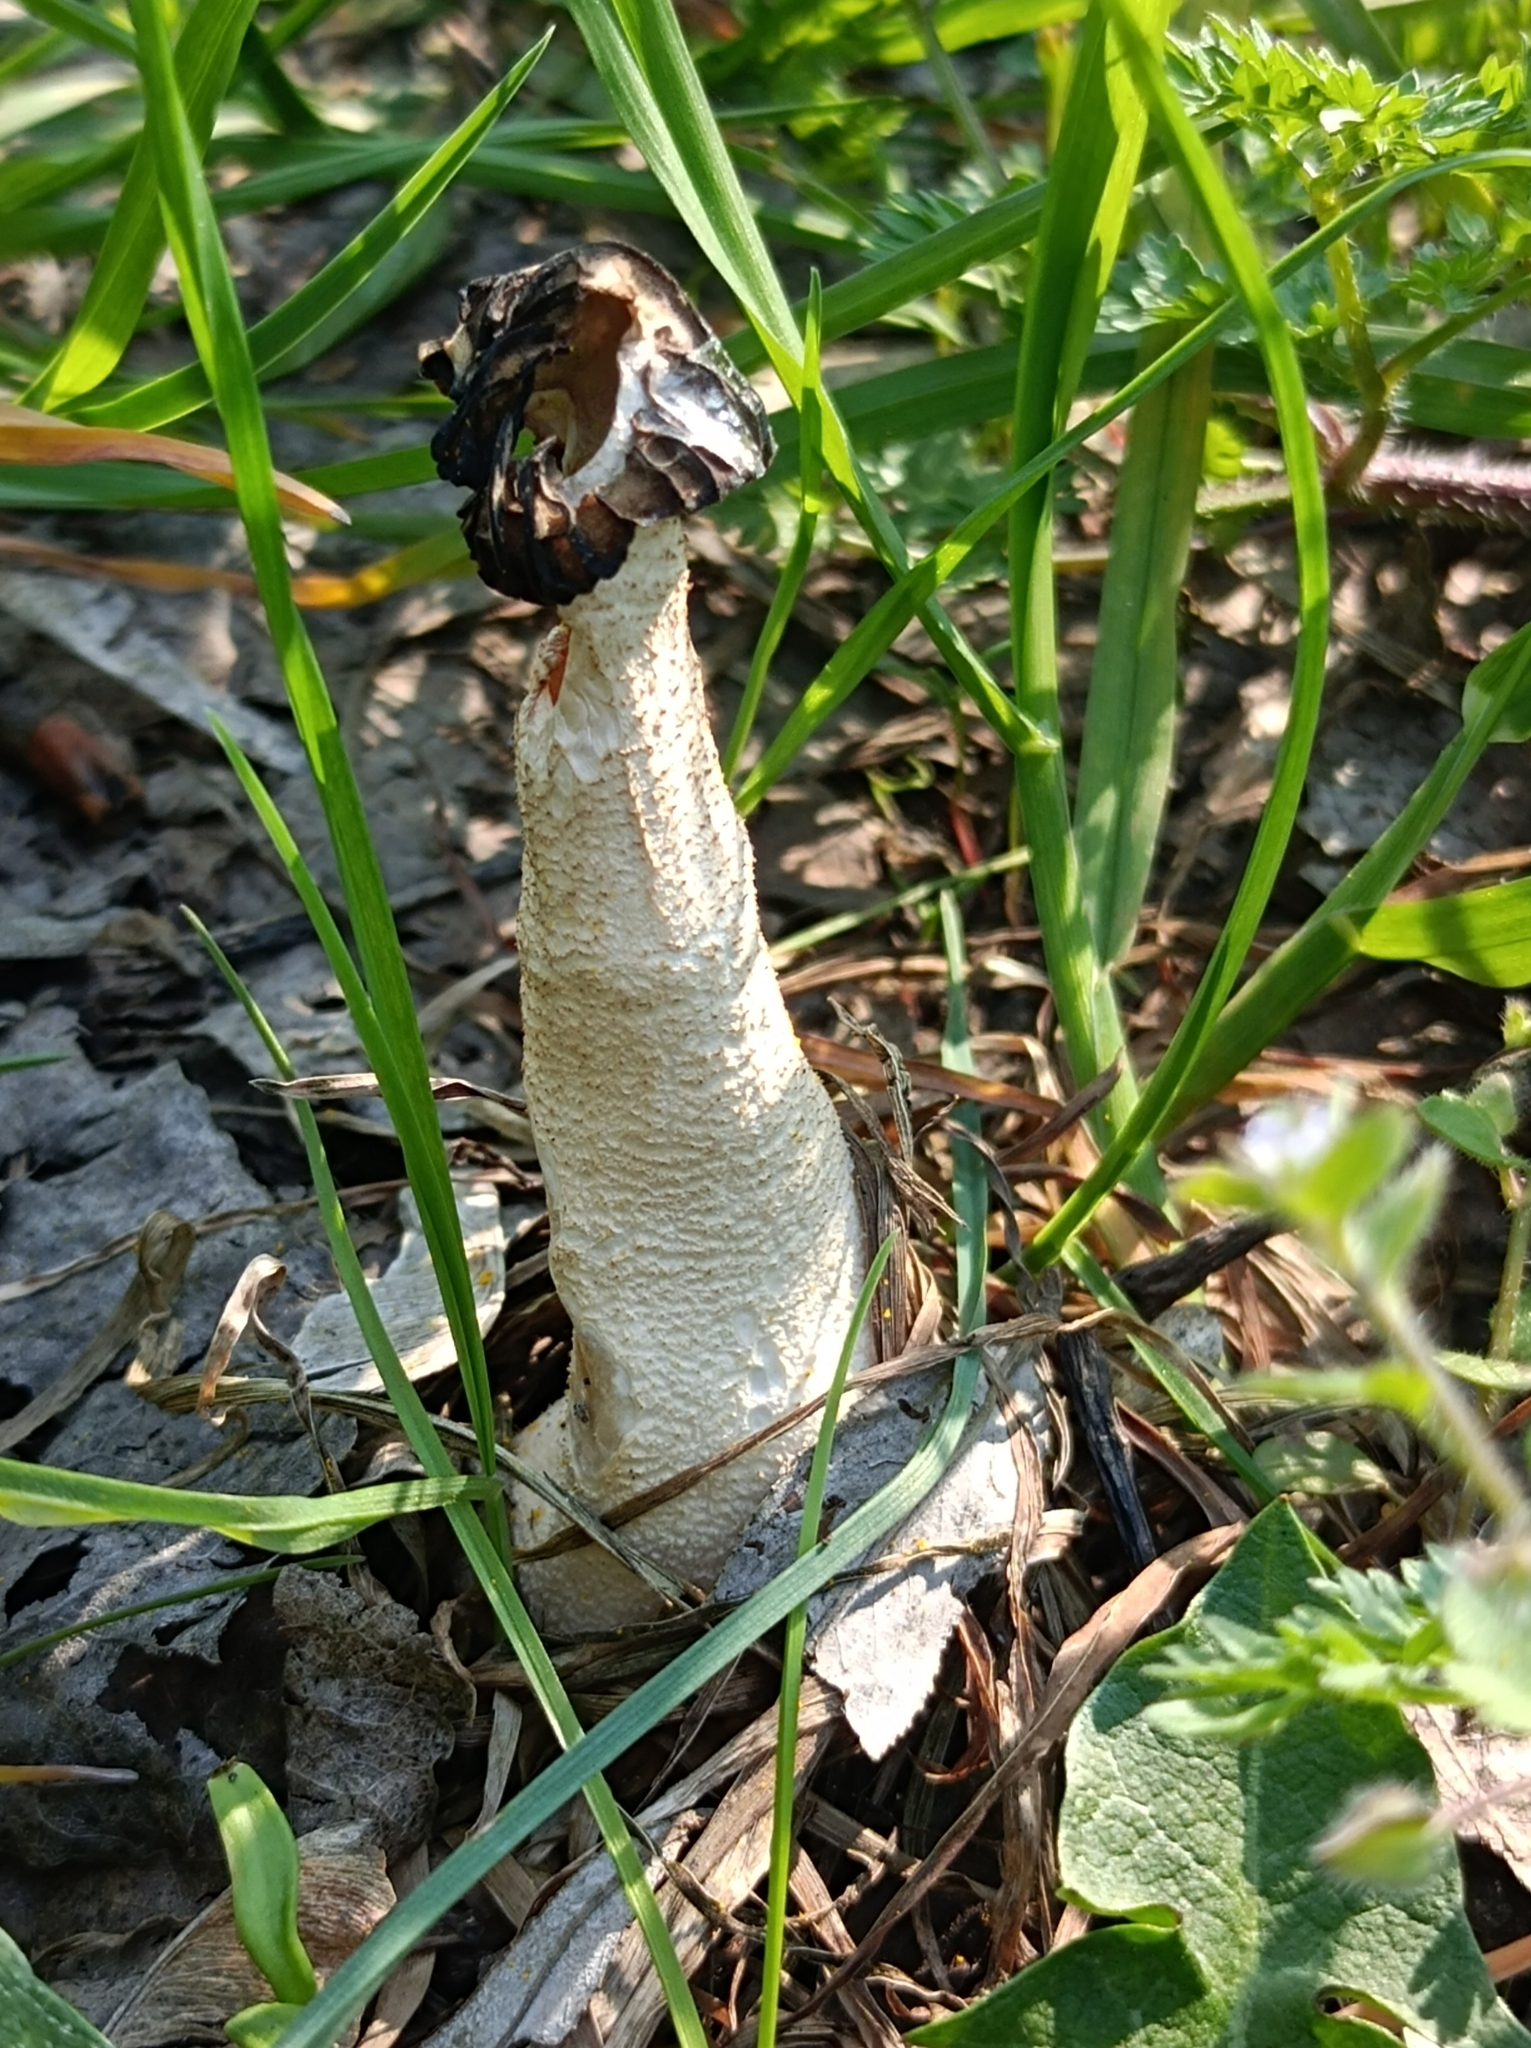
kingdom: Fungi
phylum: Ascomycota
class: Pezizomycetes
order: Pezizales
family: Morchellaceae
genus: Morchella
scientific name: Morchella semilibera
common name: Semifree morel
